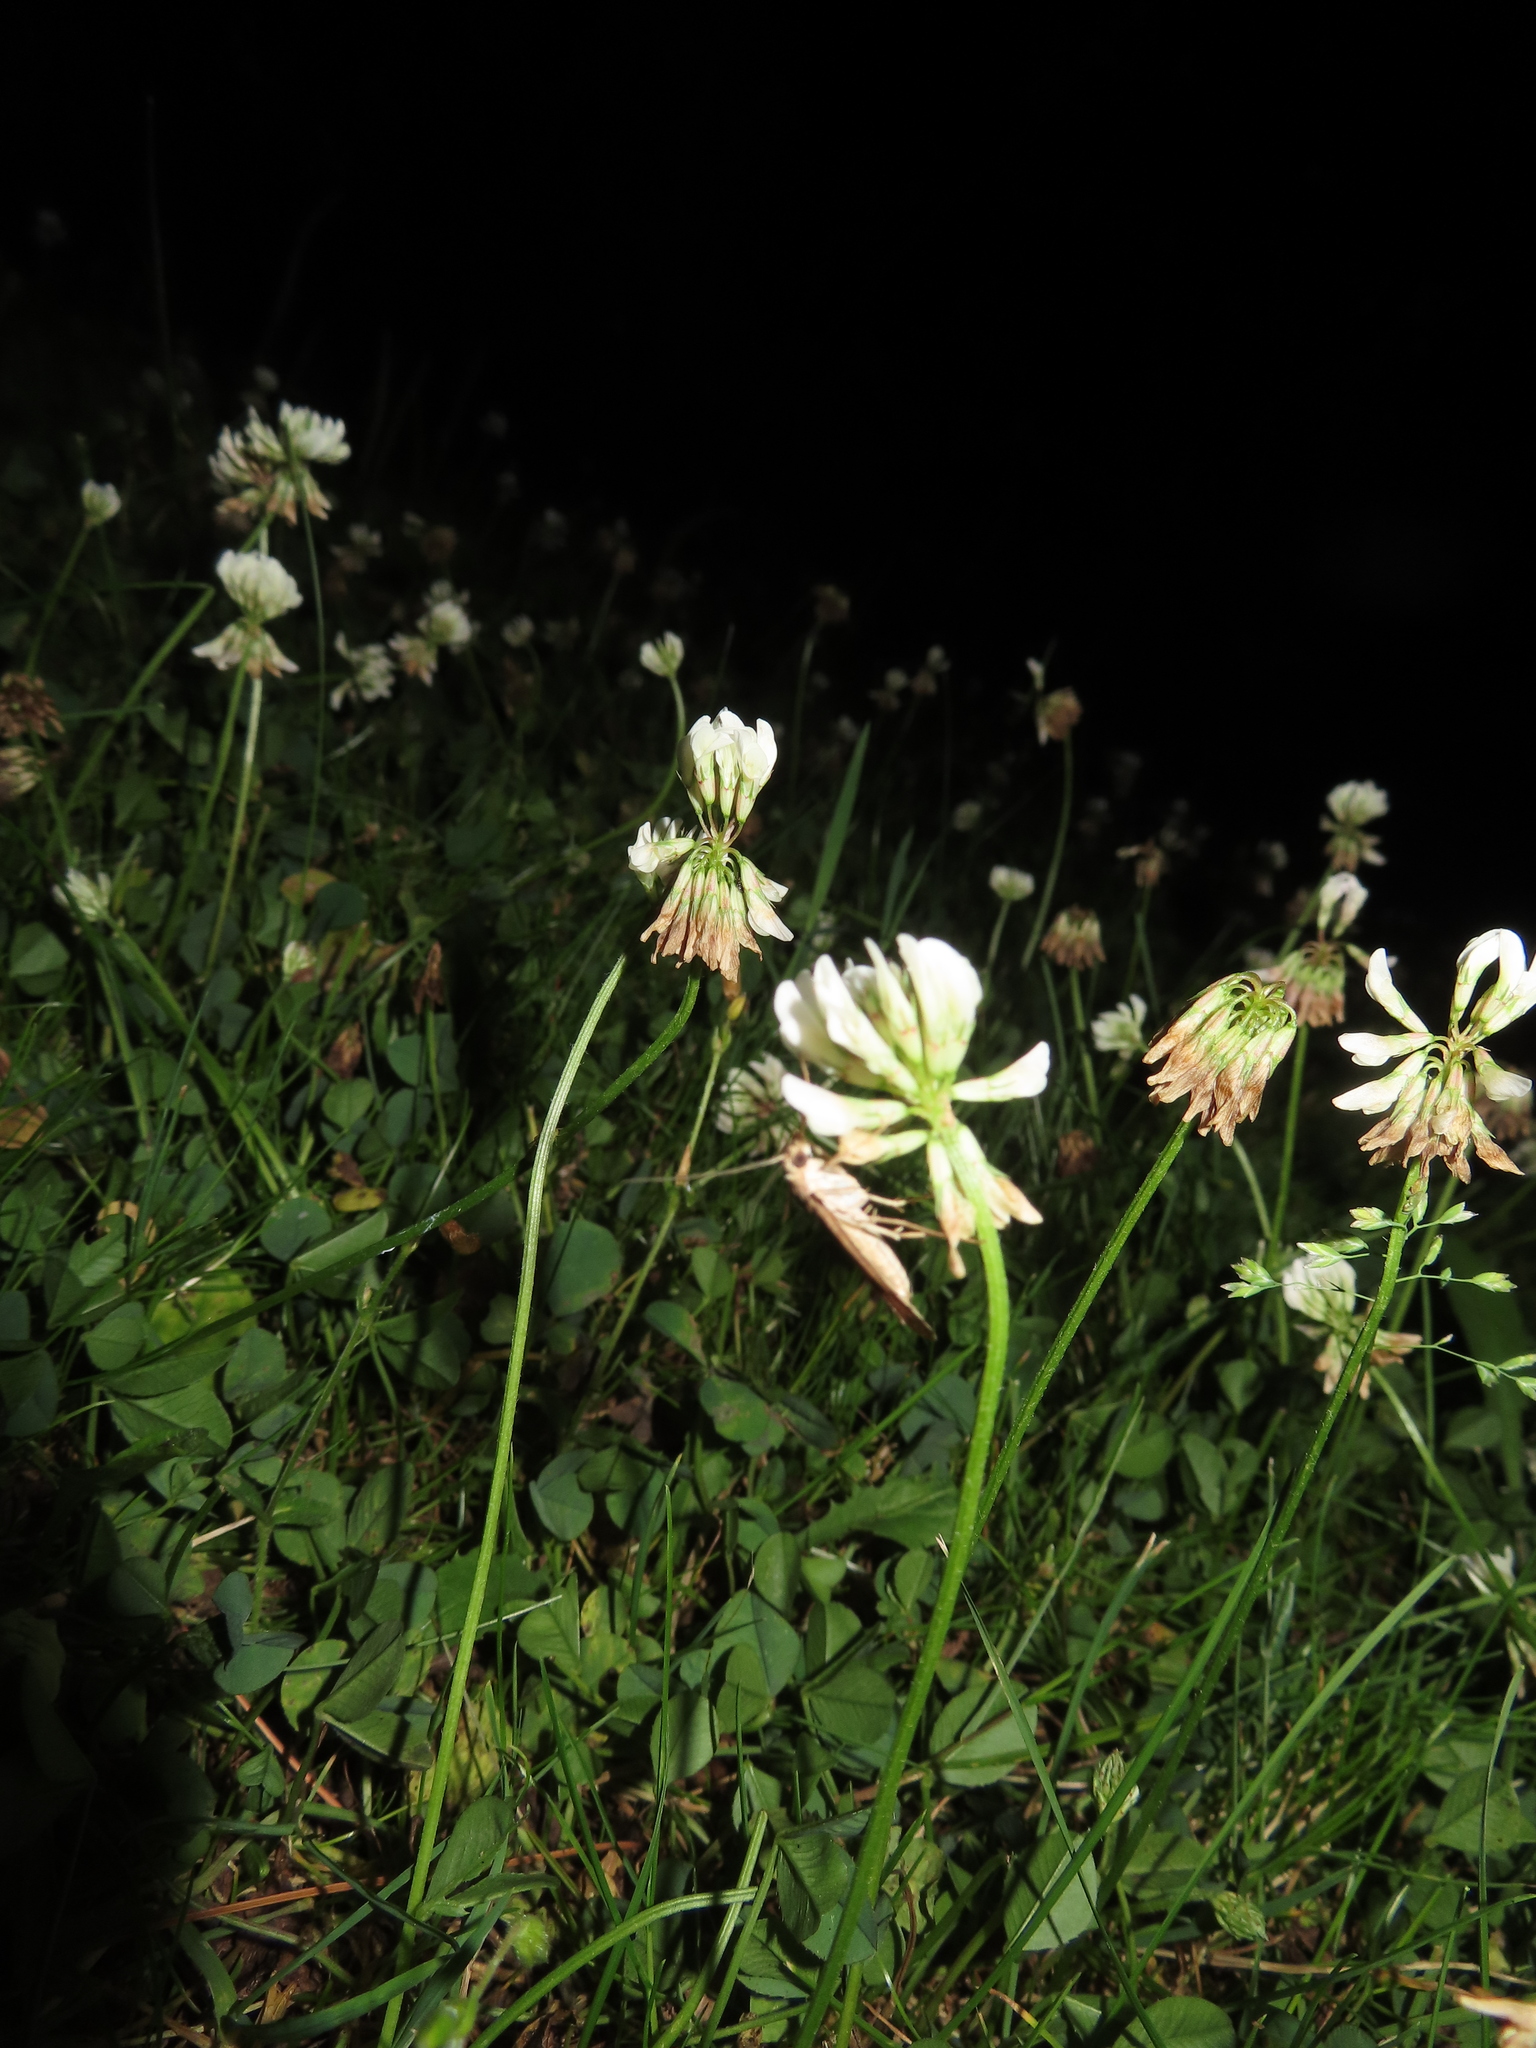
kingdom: Plantae
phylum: Tracheophyta
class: Magnoliopsida
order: Fabales
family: Fabaceae
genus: Trifolium
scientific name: Trifolium repens
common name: White clover
